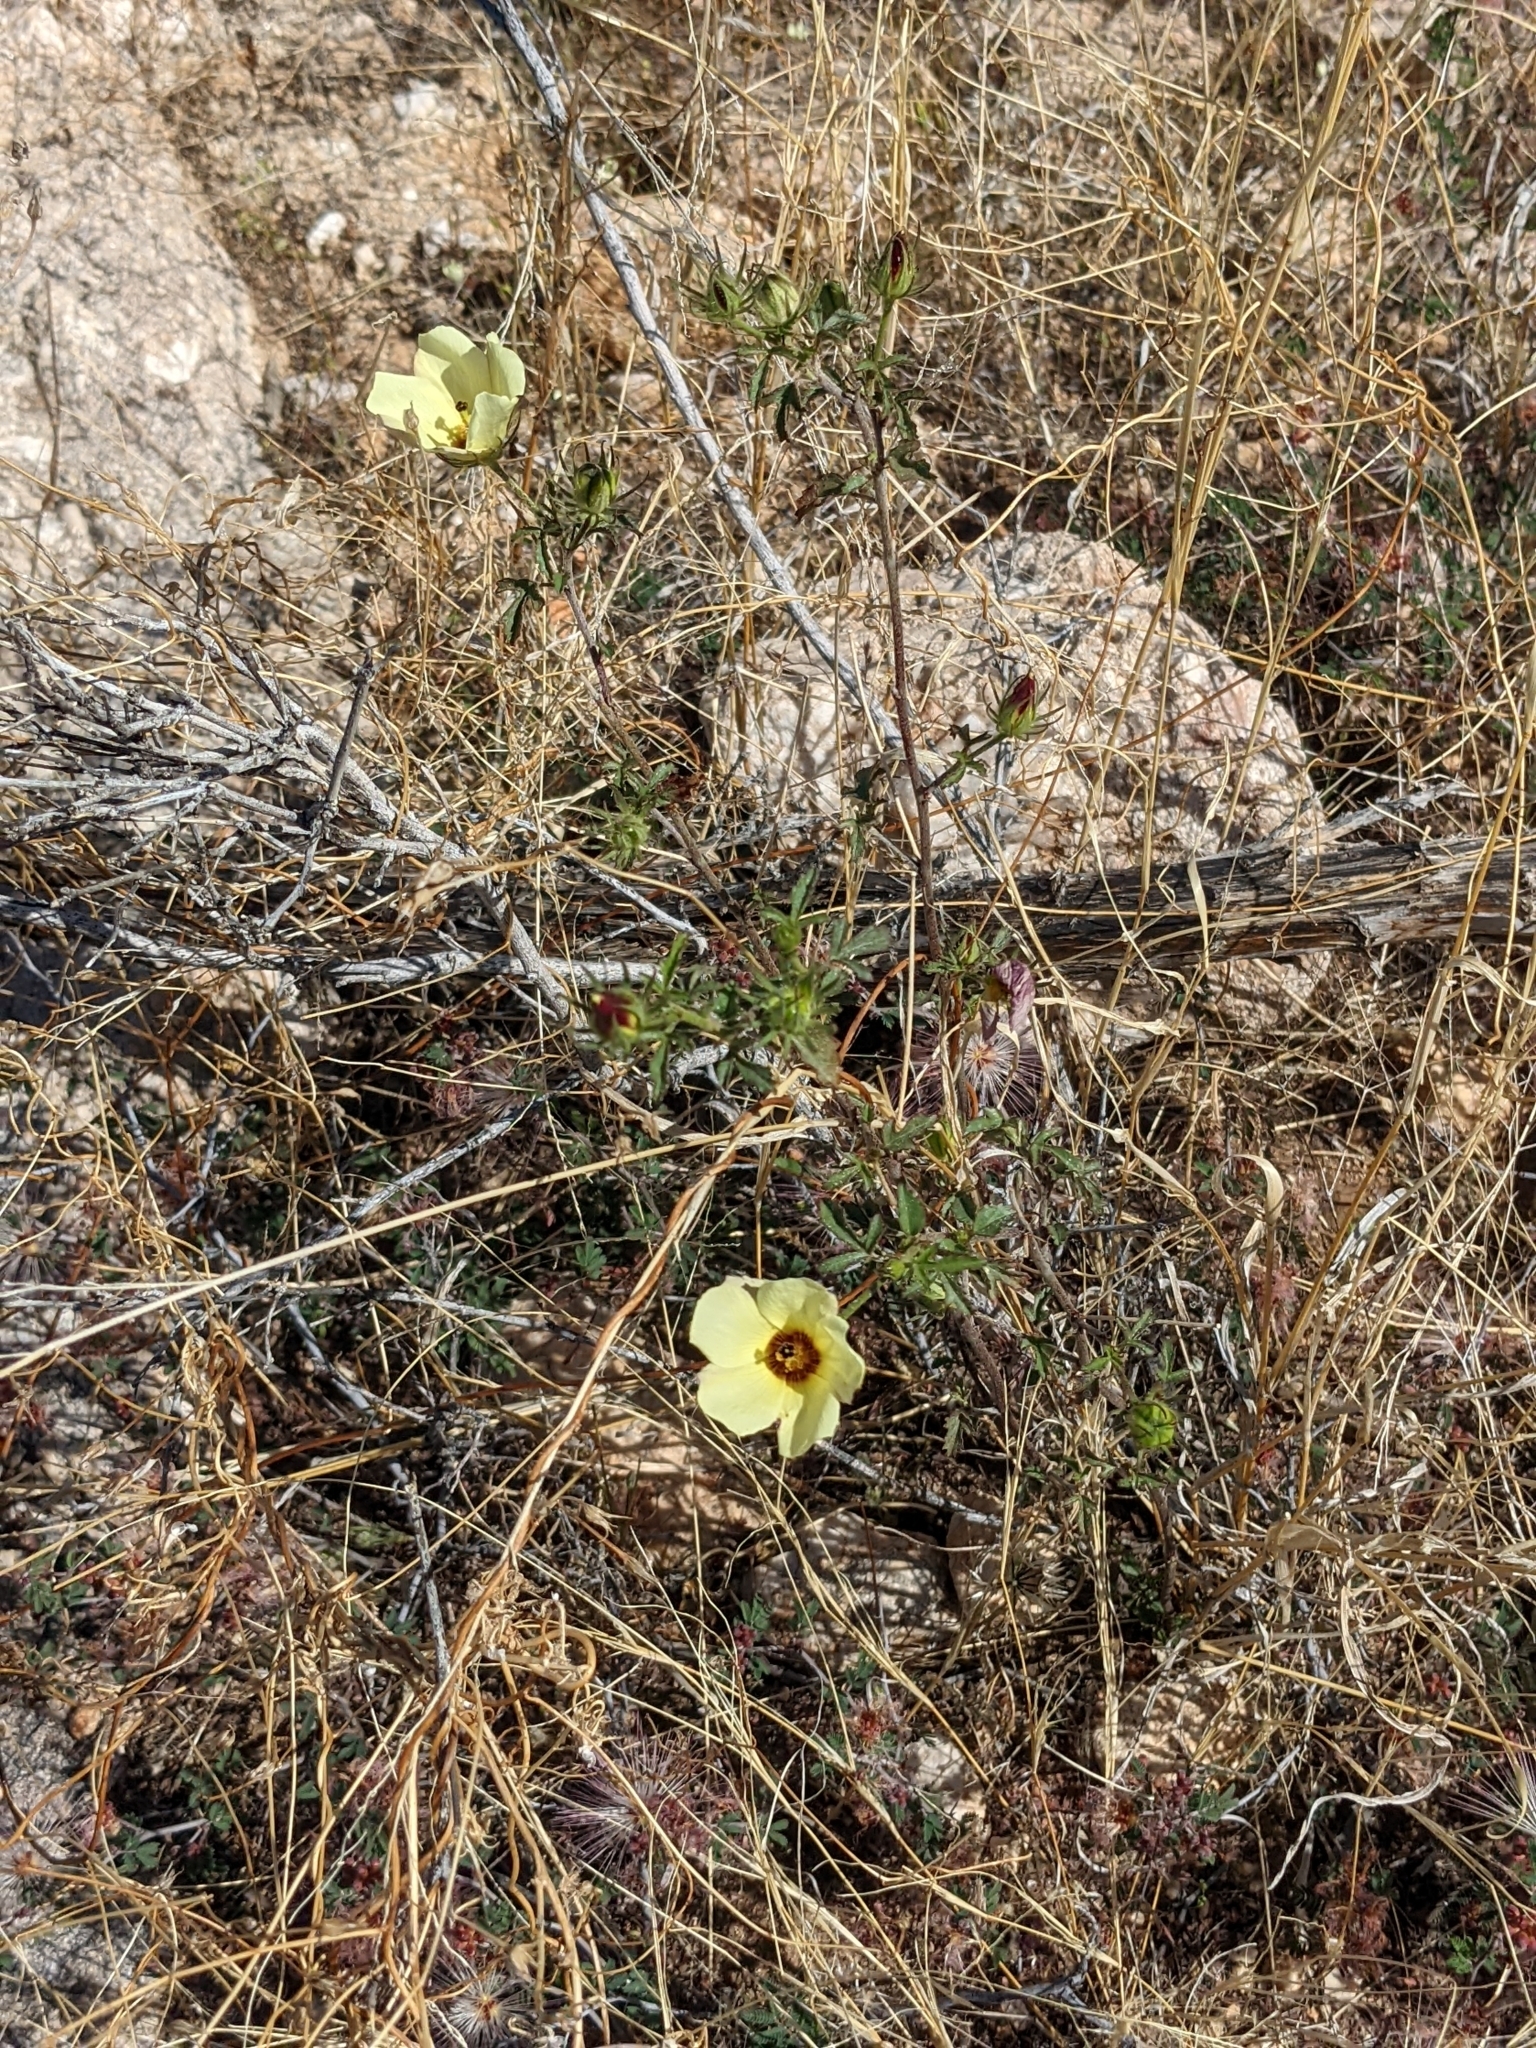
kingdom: Plantae
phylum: Tracheophyta
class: Magnoliopsida
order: Malvales
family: Malvaceae
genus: Hibiscus
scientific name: Hibiscus coulteri
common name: Desert rose-mallow
